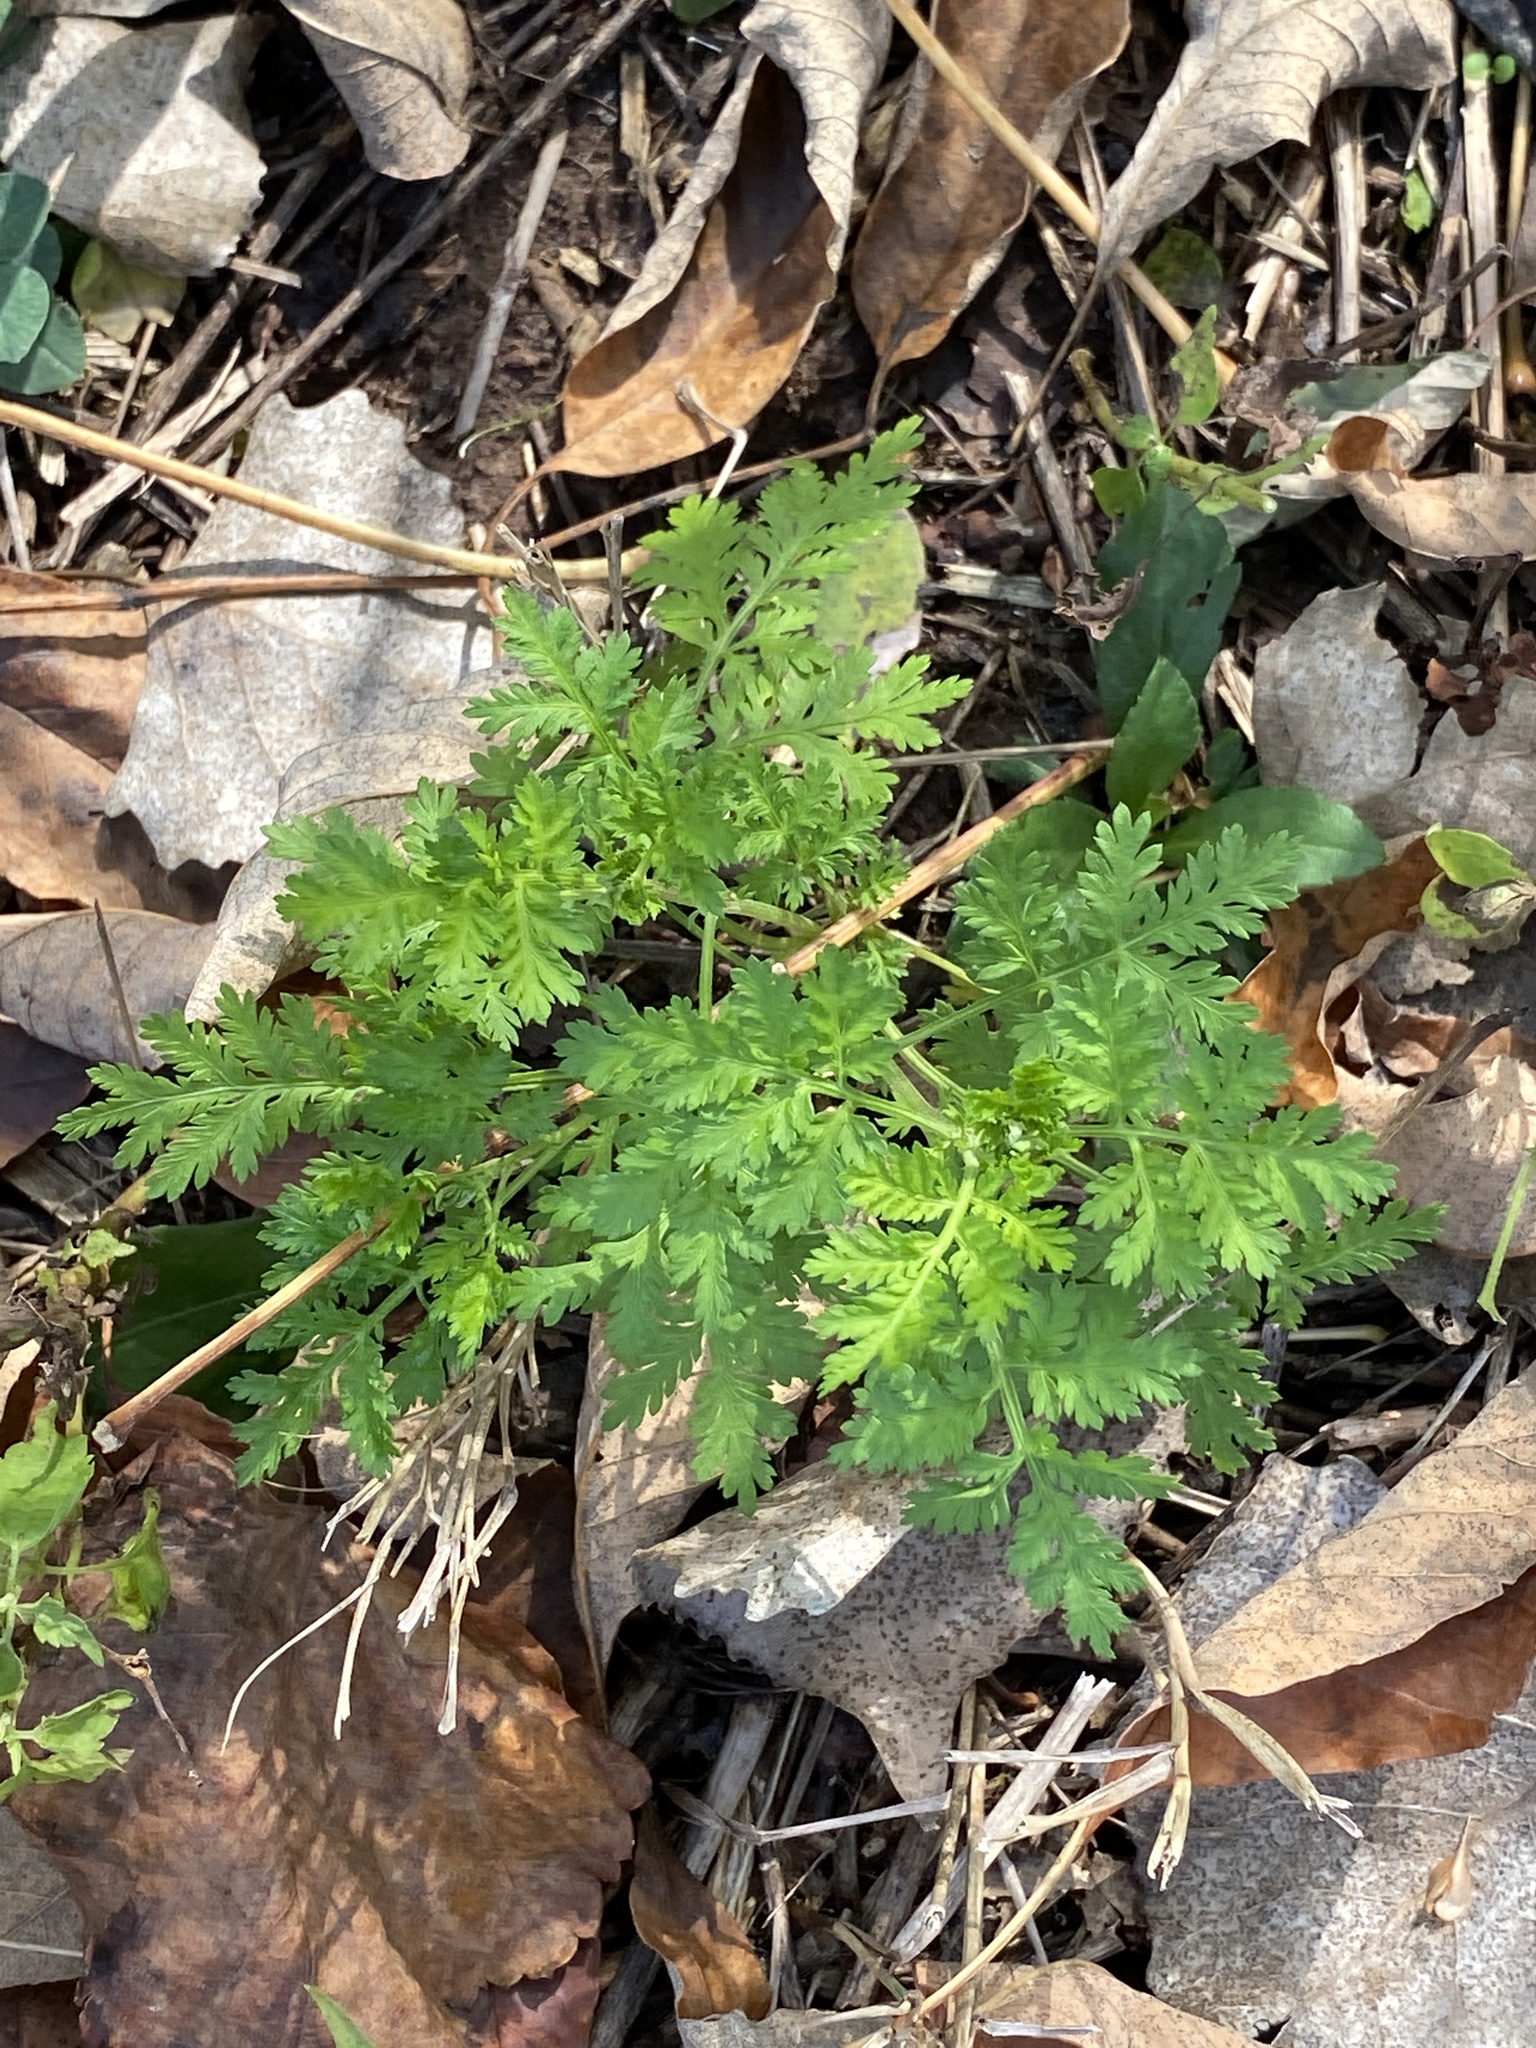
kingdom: Plantae
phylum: Tracheophyta
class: Magnoliopsida
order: Asterales
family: Asteraceae
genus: Artemisia
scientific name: Artemisia annua
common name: Sweet sagewort
